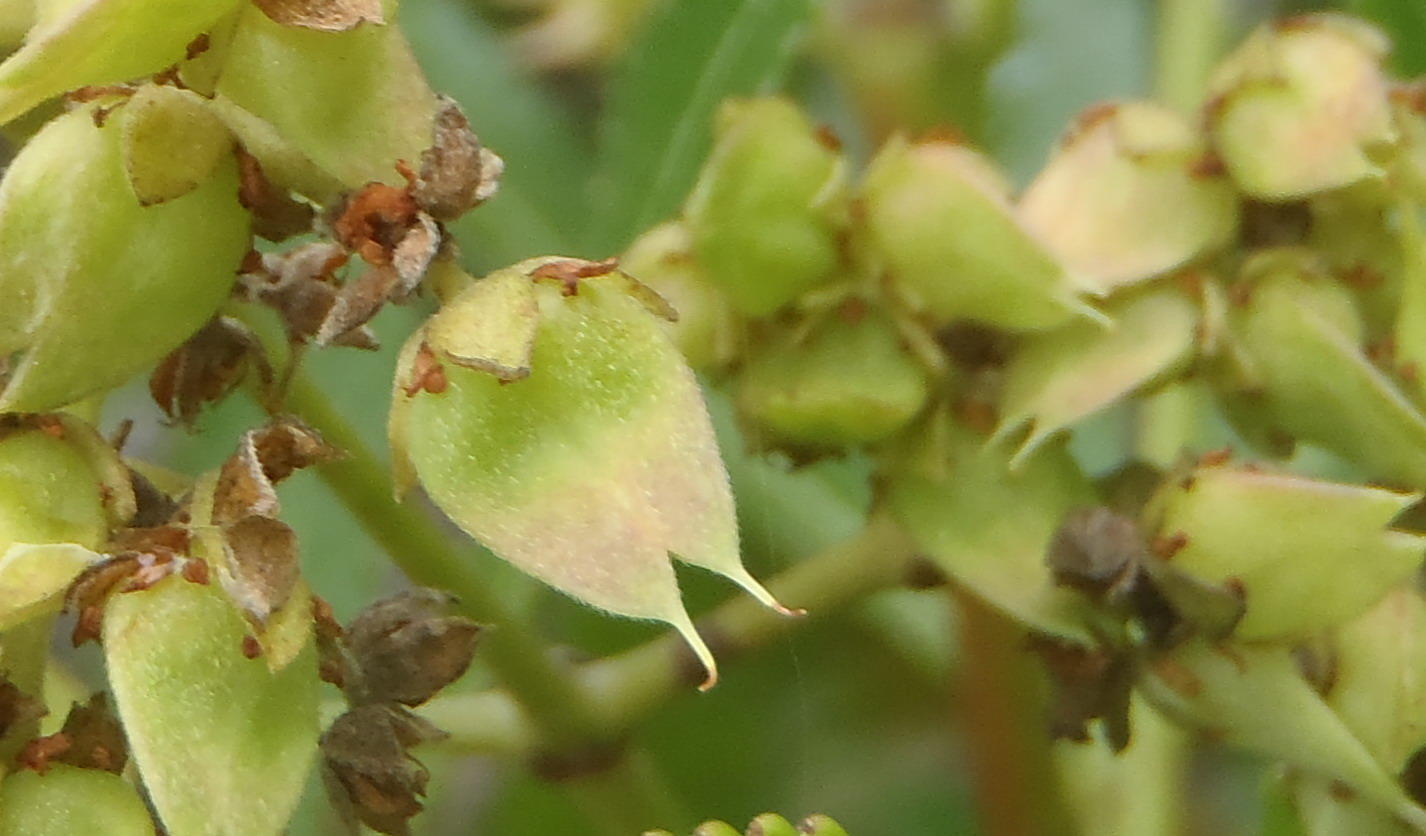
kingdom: Plantae
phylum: Tracheophyta
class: Magnoliopsida
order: Oxalidales
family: Cunoniaceae
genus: Platylophus
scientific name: Platylophus trifoliatus
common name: White alder
